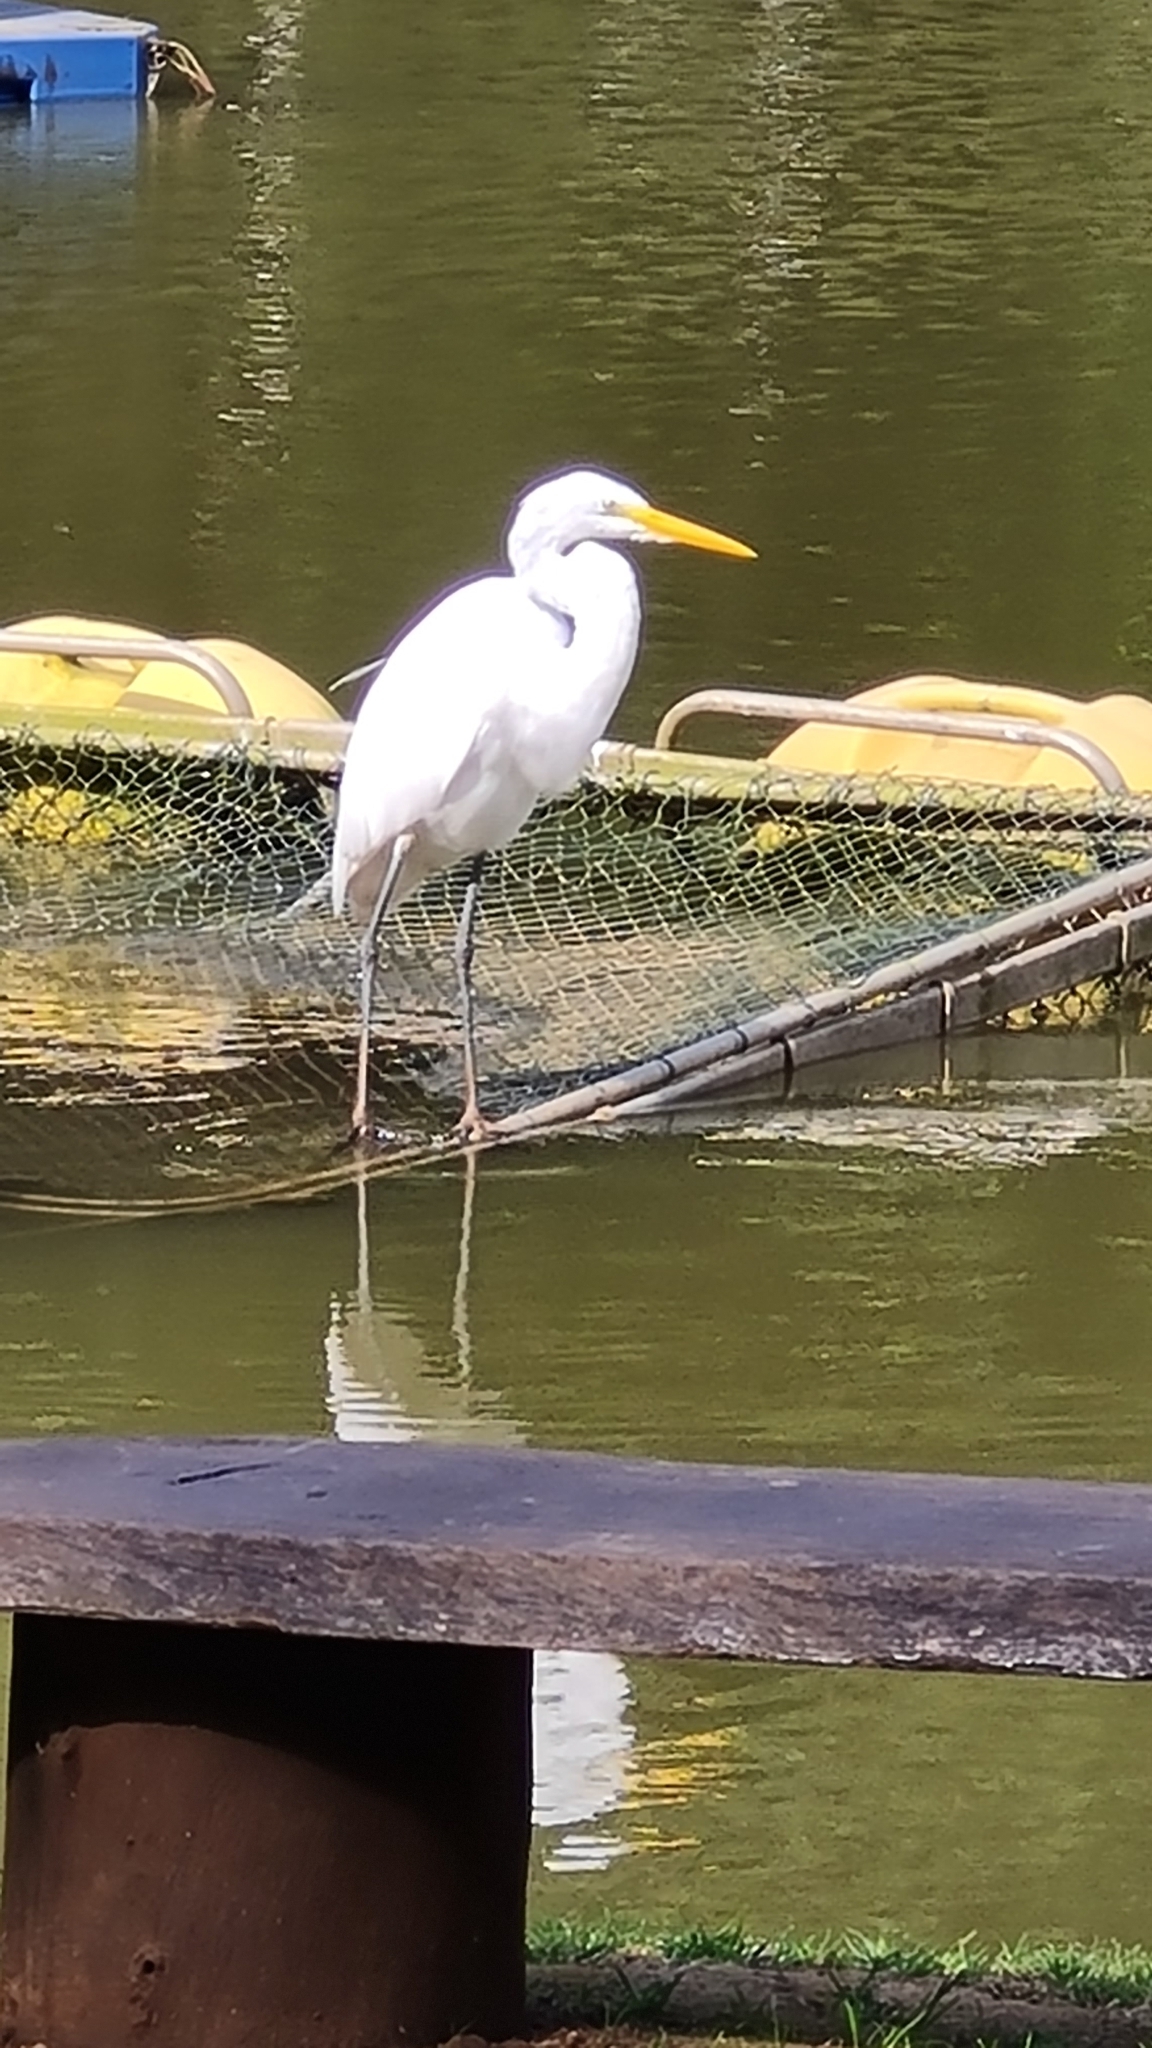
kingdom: Animalia
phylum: Chordata
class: Aves
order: Pelecaniformes
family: Ardeidae
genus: Ardea
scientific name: Ardea alba
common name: Great egret
